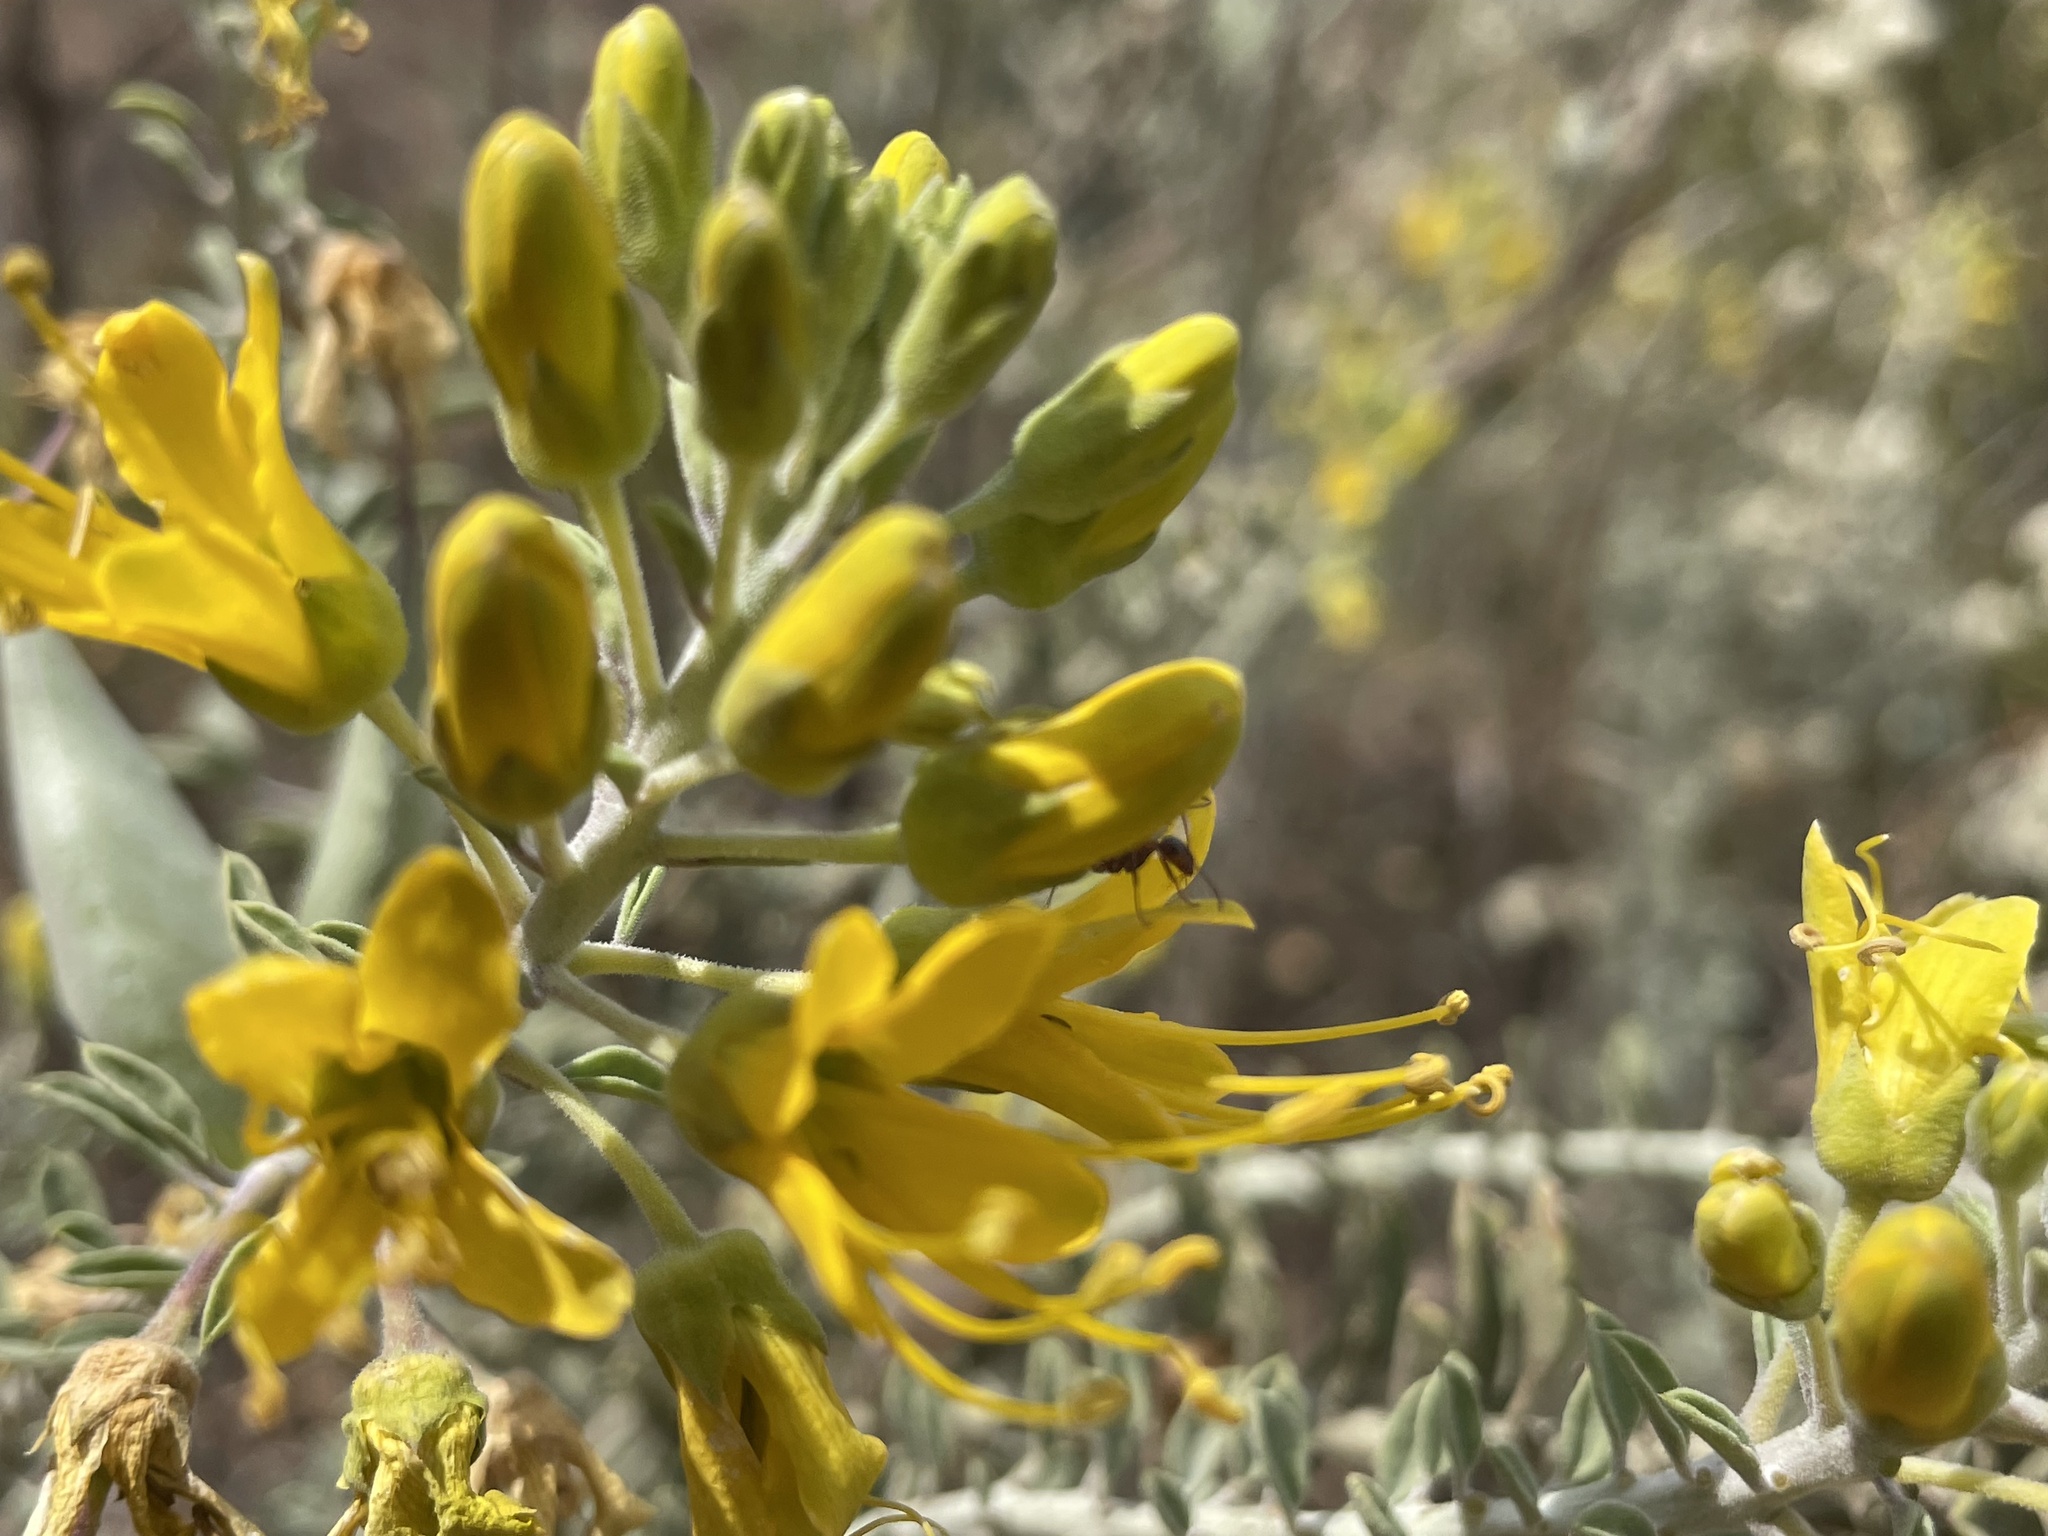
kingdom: Plantae
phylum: Tracheophyta
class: Magnoliopsida
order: Brassicales
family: Cleomaceae
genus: Cleomella
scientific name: Cleomella arborea
